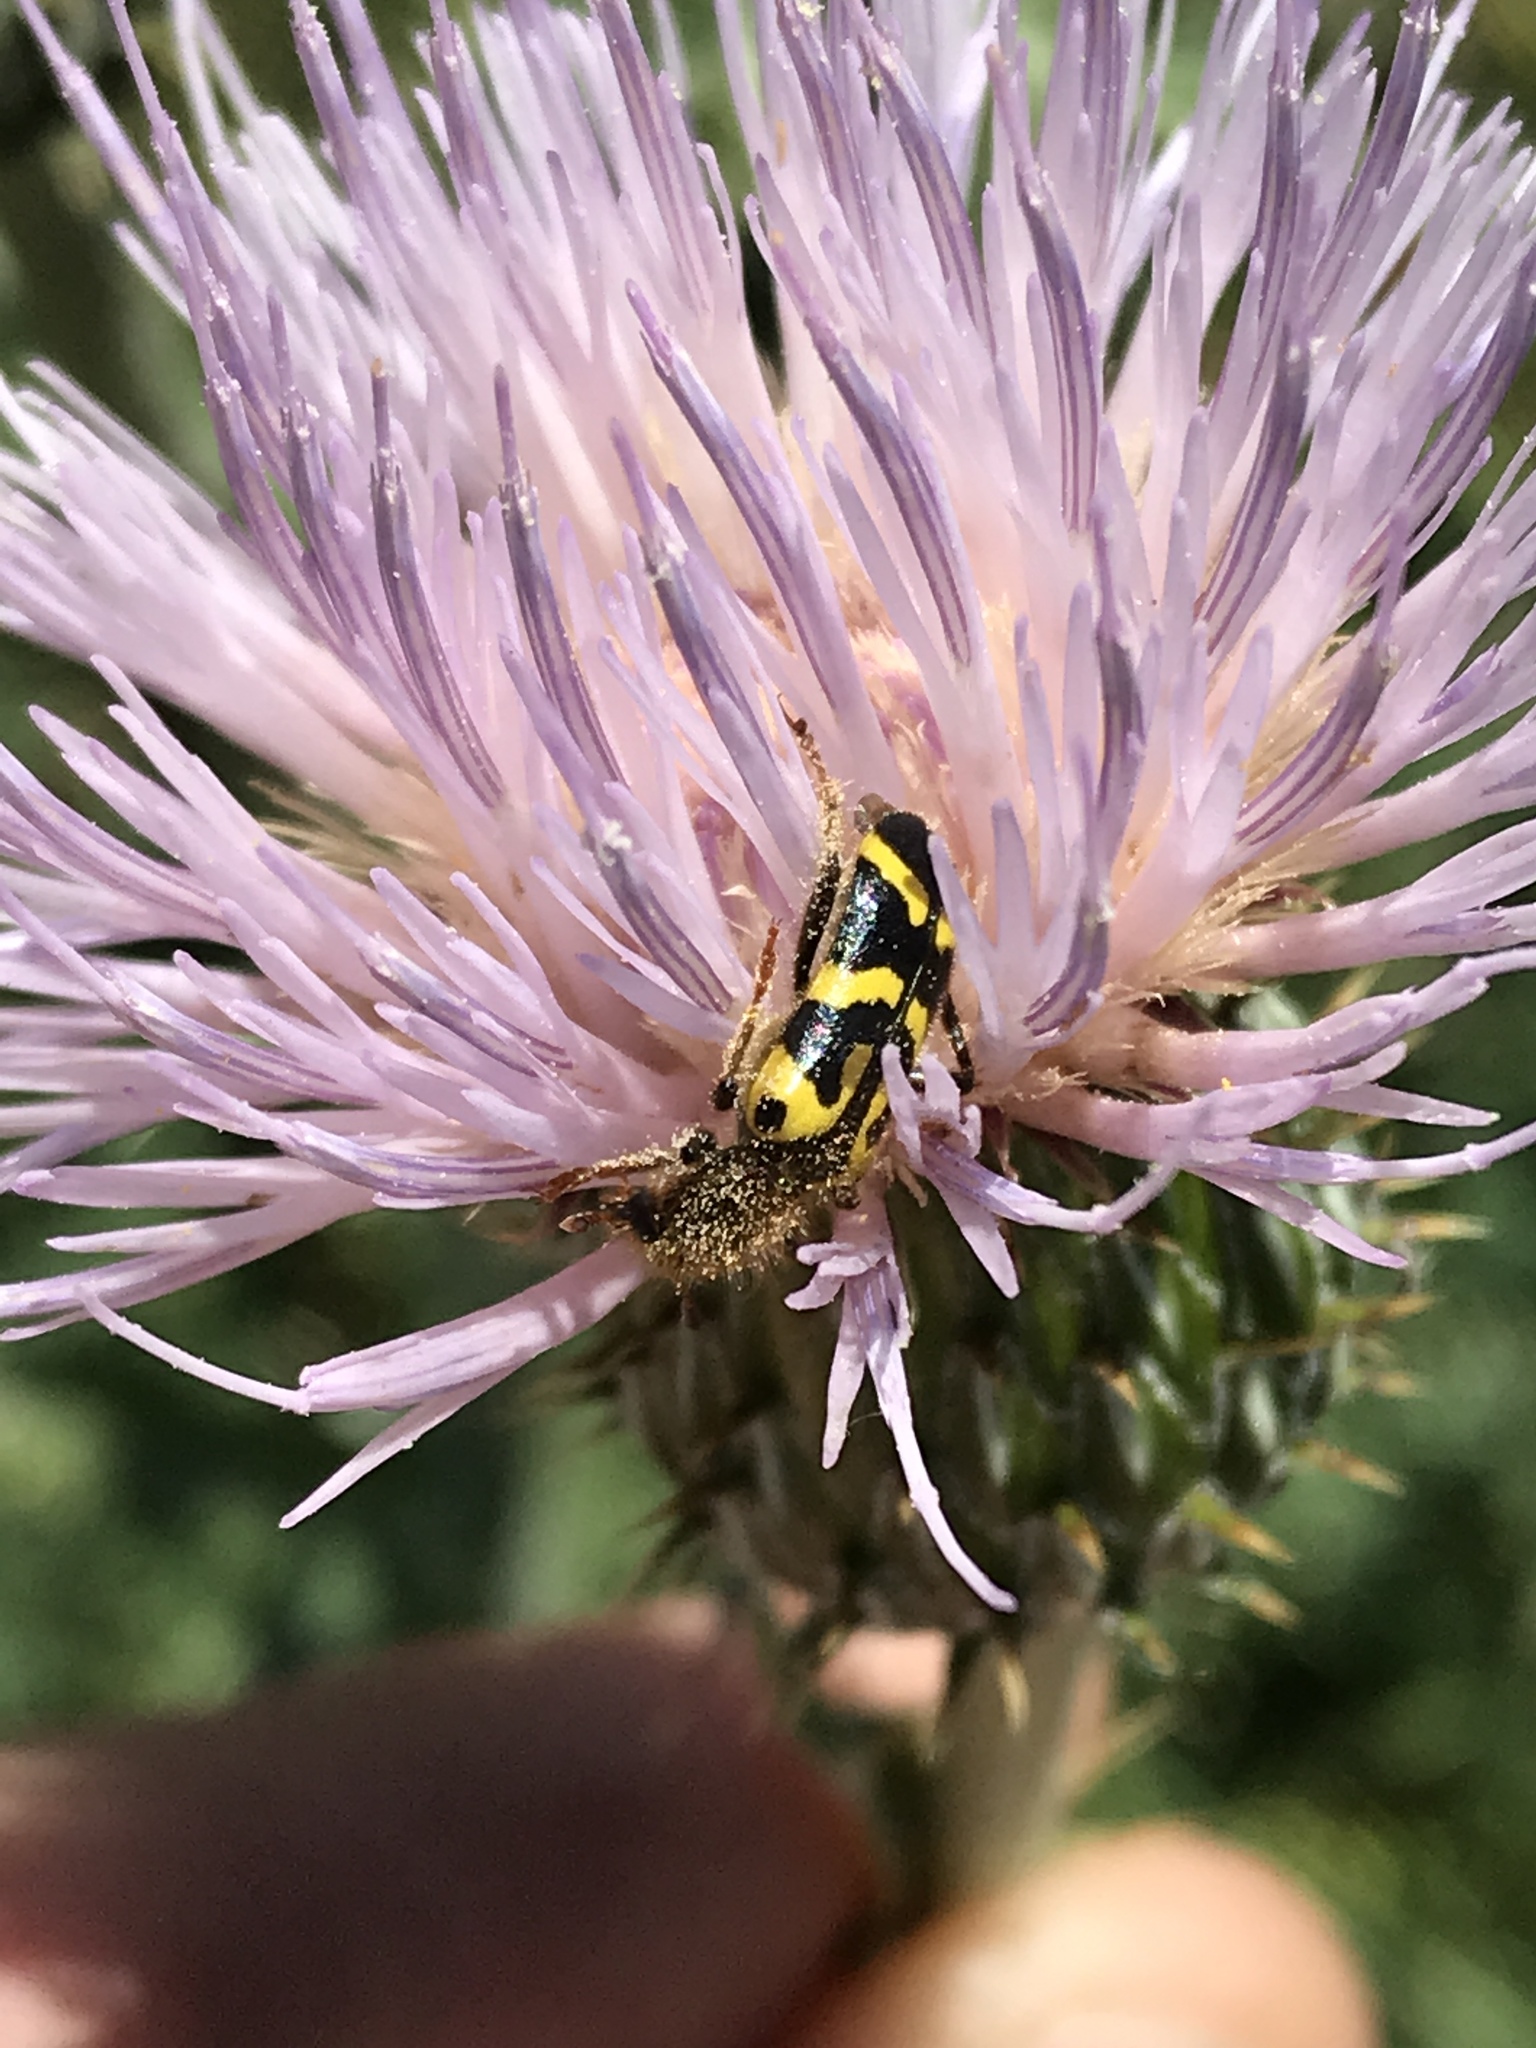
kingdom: Animalia
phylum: Arthropoda
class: Insecta
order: Coleoptera
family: Cleridae
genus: Trichodes
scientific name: Trichodes ornatus
